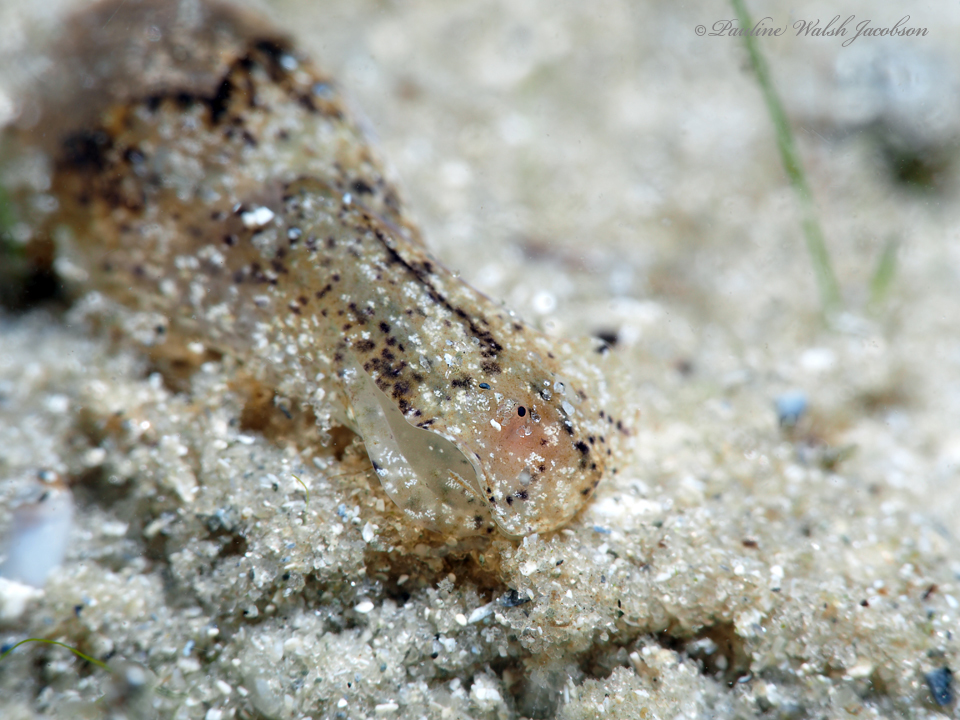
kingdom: Animalia
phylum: Mollusca
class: Gastropoda
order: Cephalaspidea
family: Haminoeidae
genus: Haminoea
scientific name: Haminoea elegans
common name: Elegant glassy-bubble
